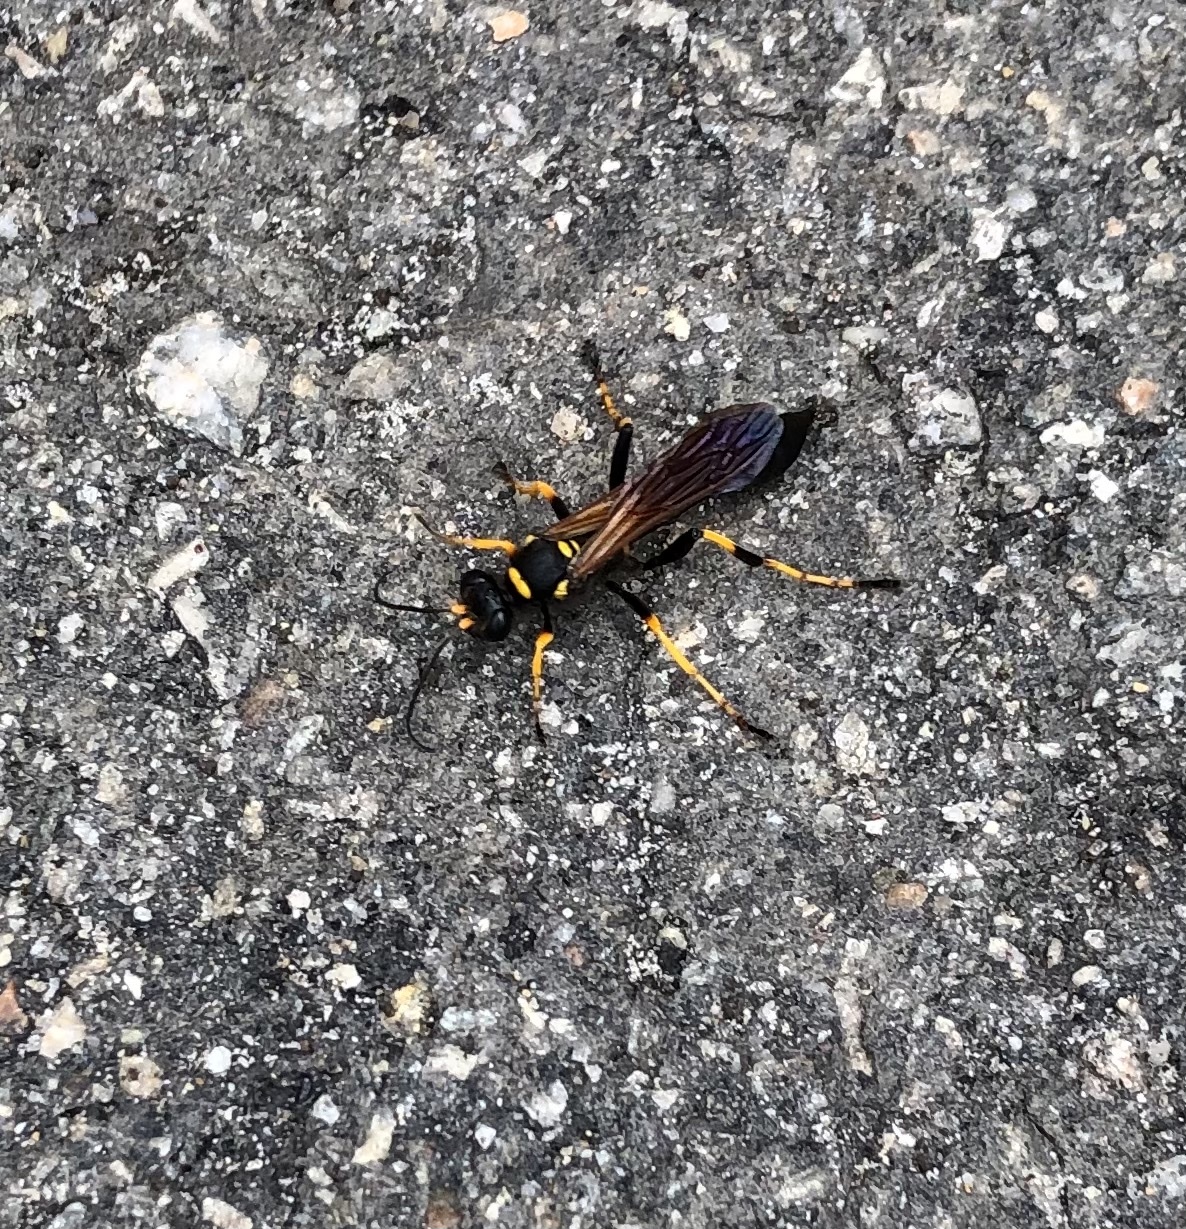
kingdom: Animalia
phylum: Arthropoda
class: Insecta
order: Hymenoptera
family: Sphecidae
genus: Sceliphron
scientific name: Sceliphron caementarium
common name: Mud dauber
